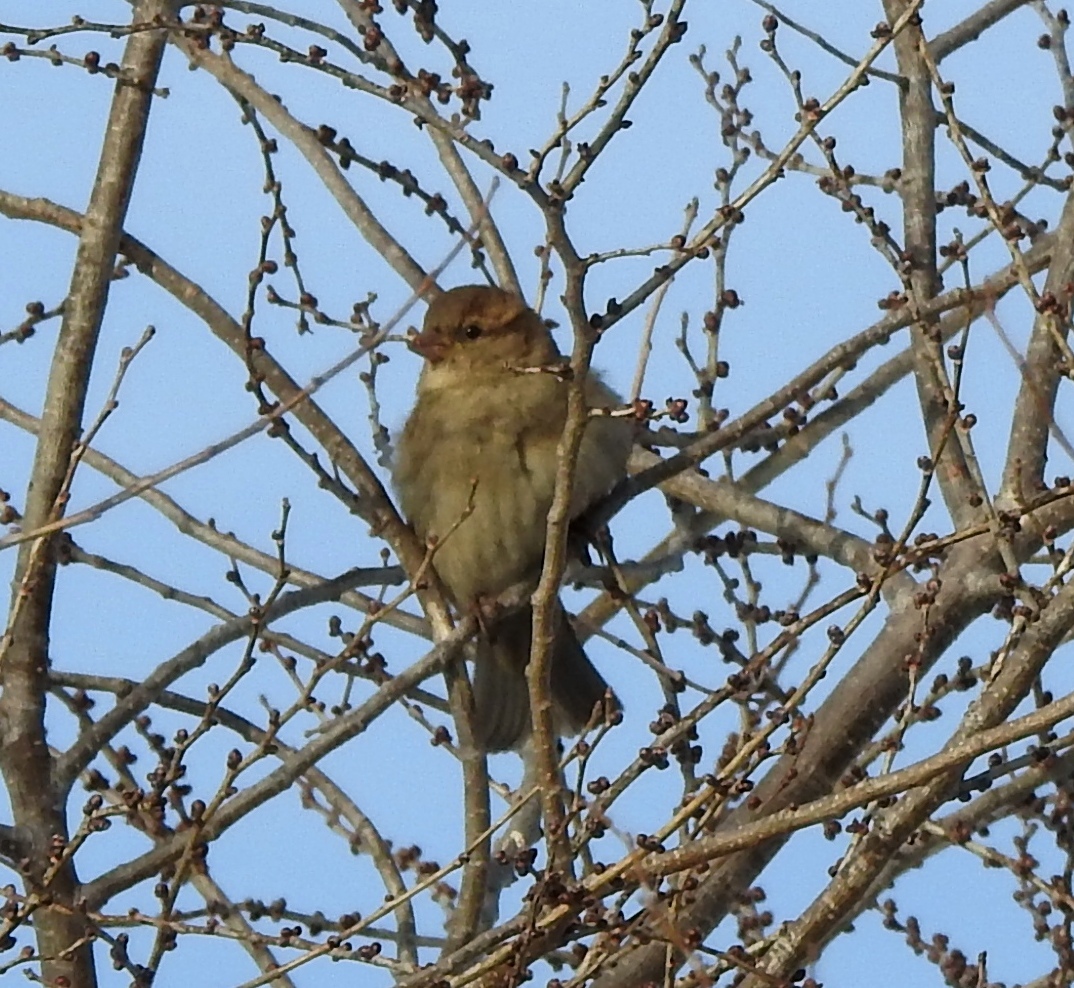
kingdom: Animalia
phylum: Chordata
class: Aves
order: Passeriformes
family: Passeridae
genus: Passer
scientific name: Passer domesticus
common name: House sparrow
